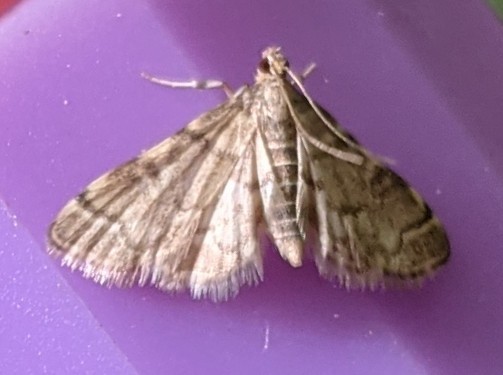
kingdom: Animalia
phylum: Arthropoda
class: Insecta
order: Lepidoptera
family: Crambidae
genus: Anageshna
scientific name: Anageshna primordialis
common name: Yellow-spotted webworm moth
